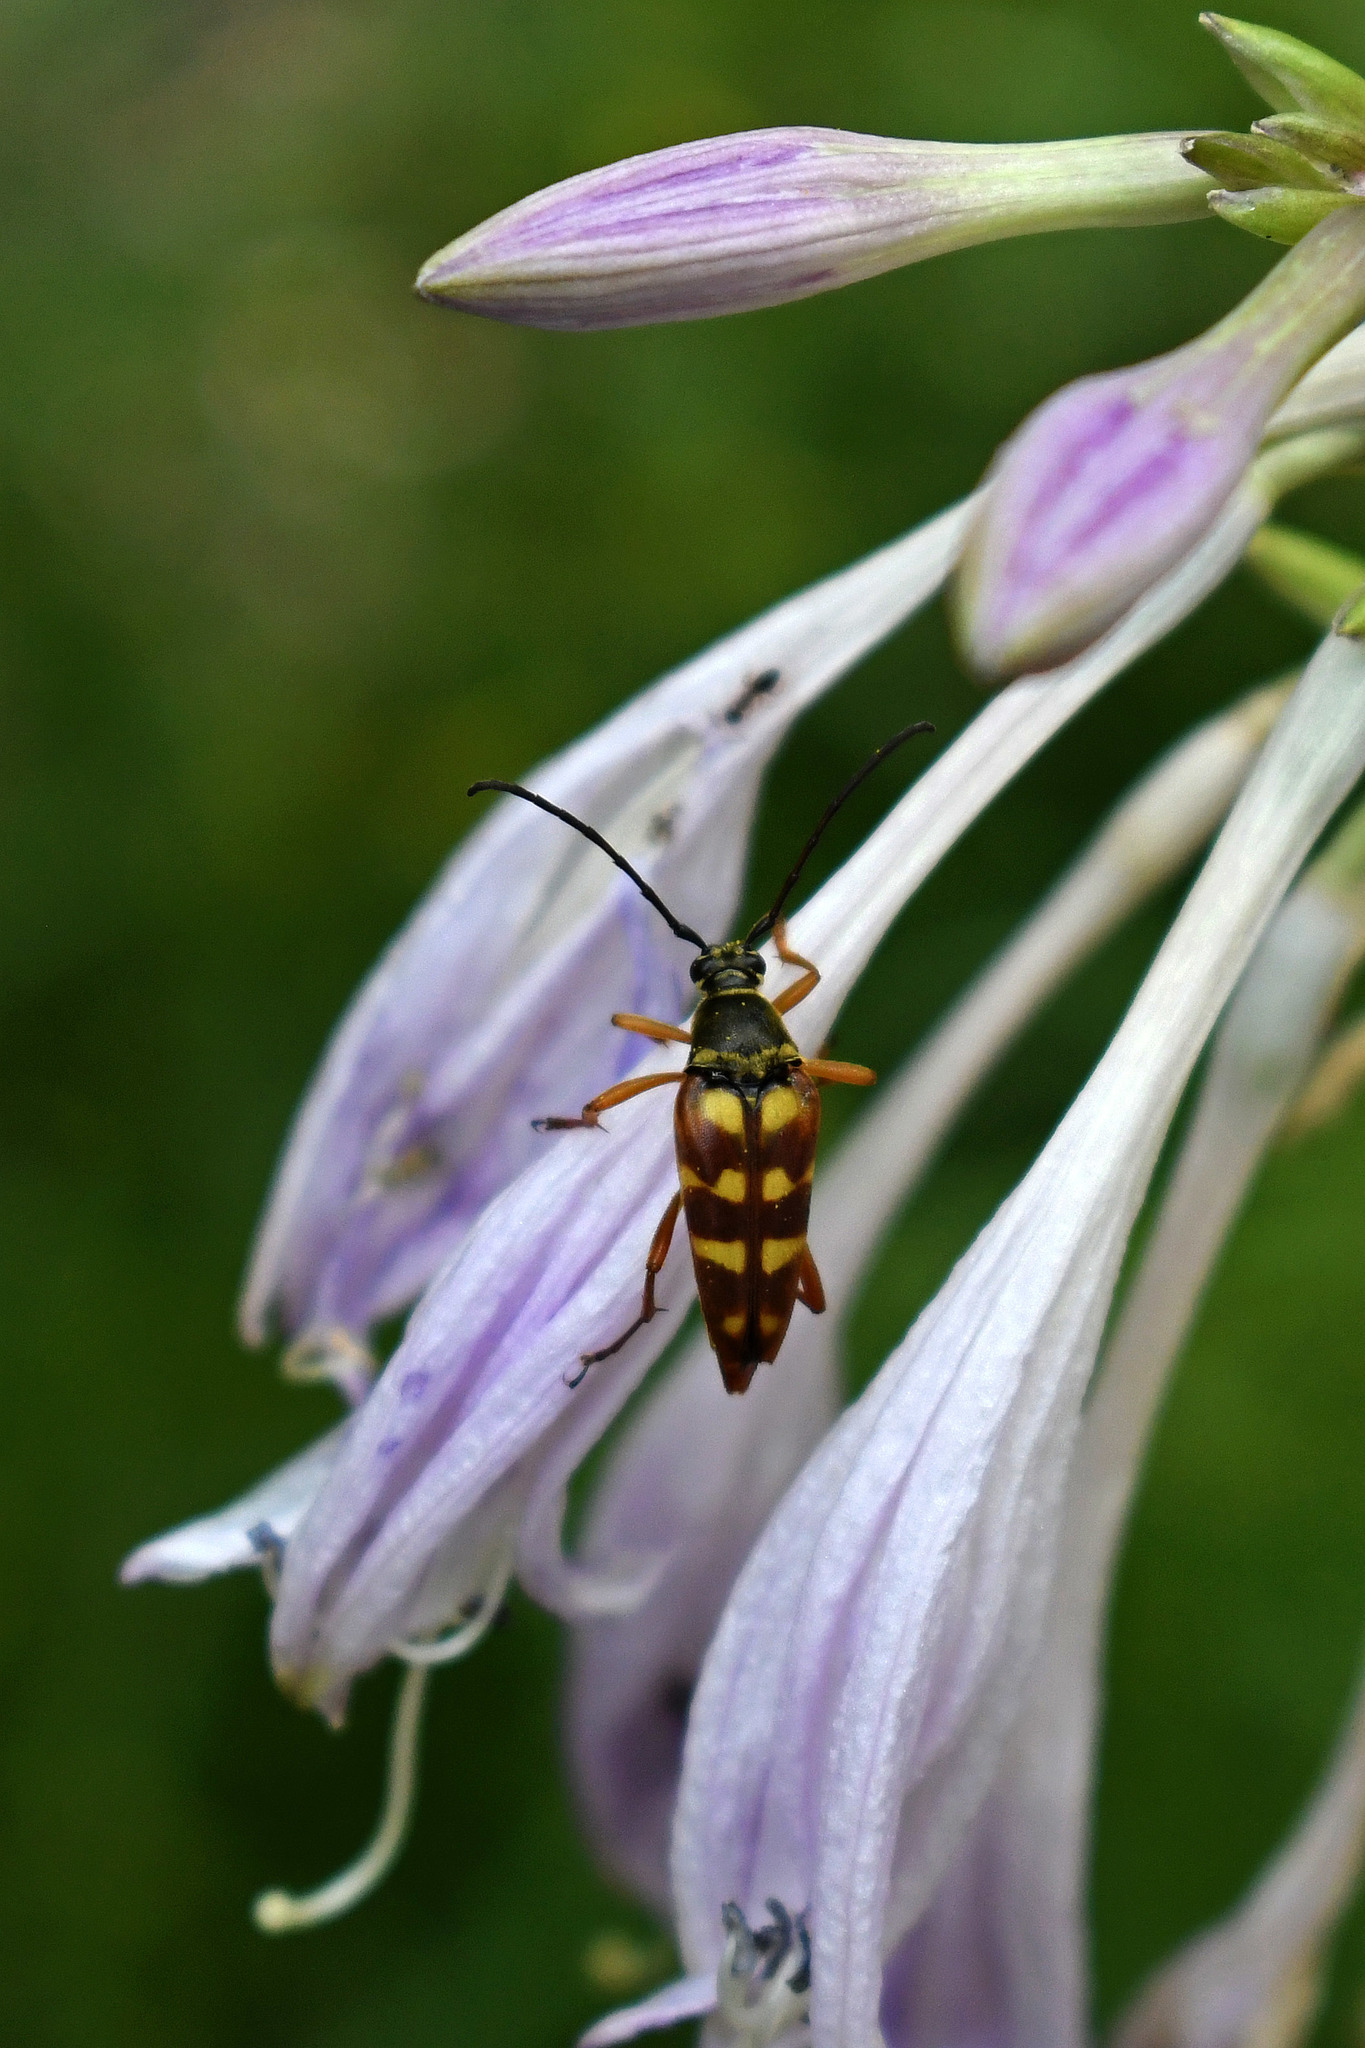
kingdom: Animalia
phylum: Arthropoda
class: Insecta
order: Coleoptera
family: Cerambycidae
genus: Typocerus
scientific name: Typocerus velutinus
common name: Banded longhorn beetle
